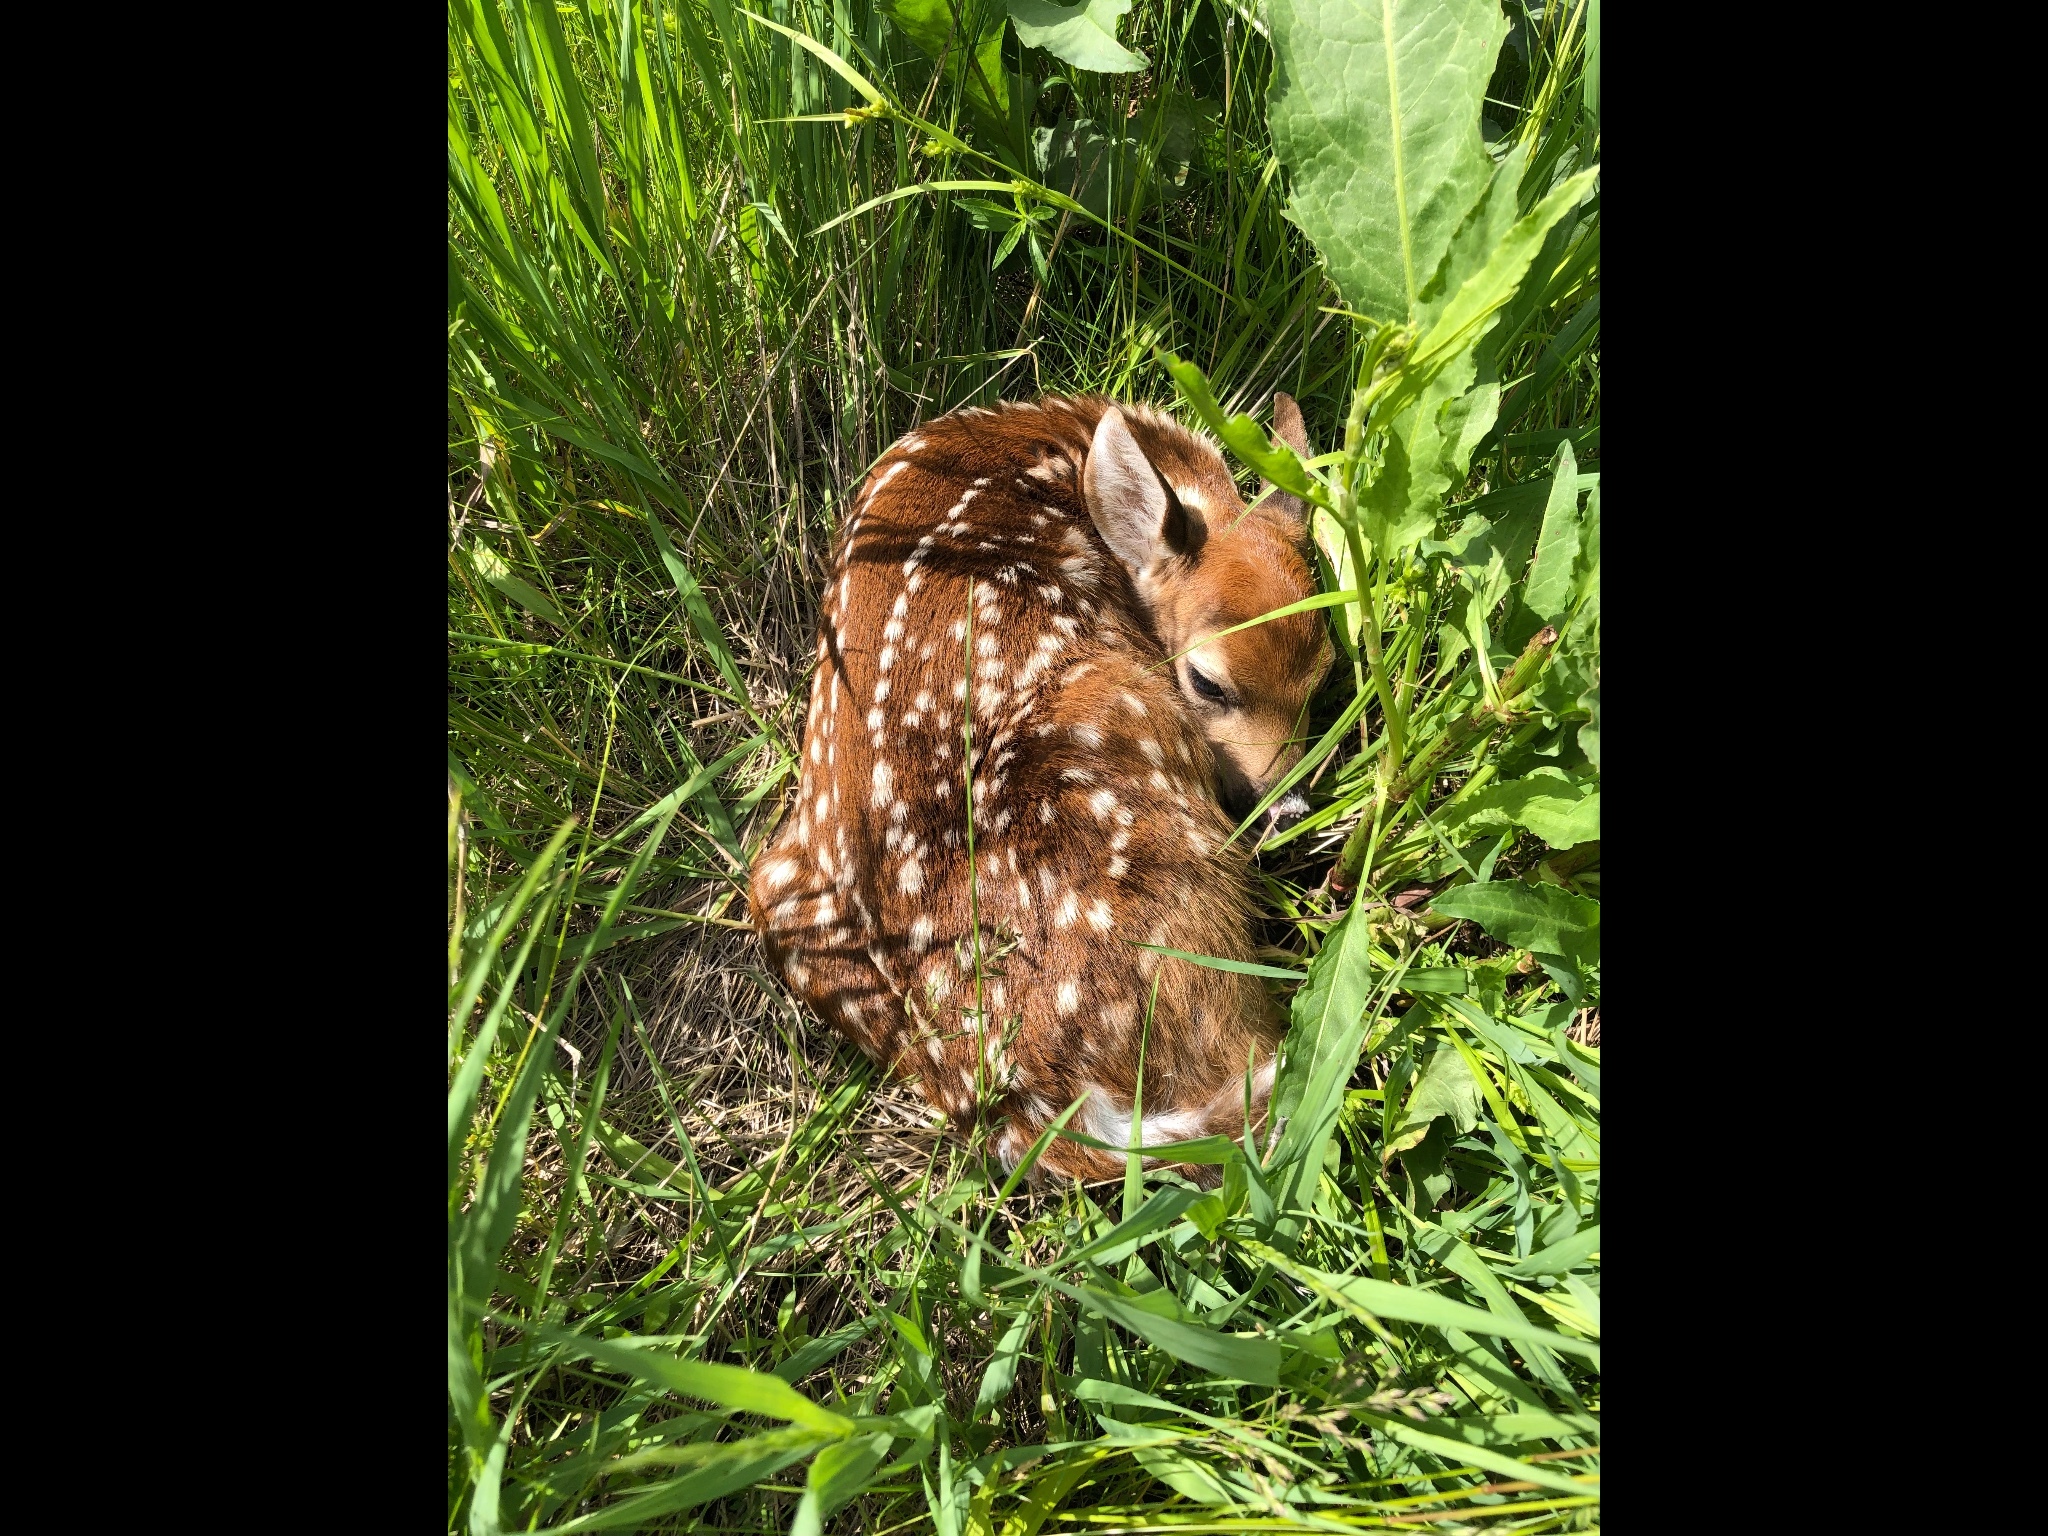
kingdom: Animalia
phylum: Chordata
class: Mammalia
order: Artiodactyla
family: Cervidae
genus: Odocoileus
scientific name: Odocoileus virginianus
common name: White-tailed deer
